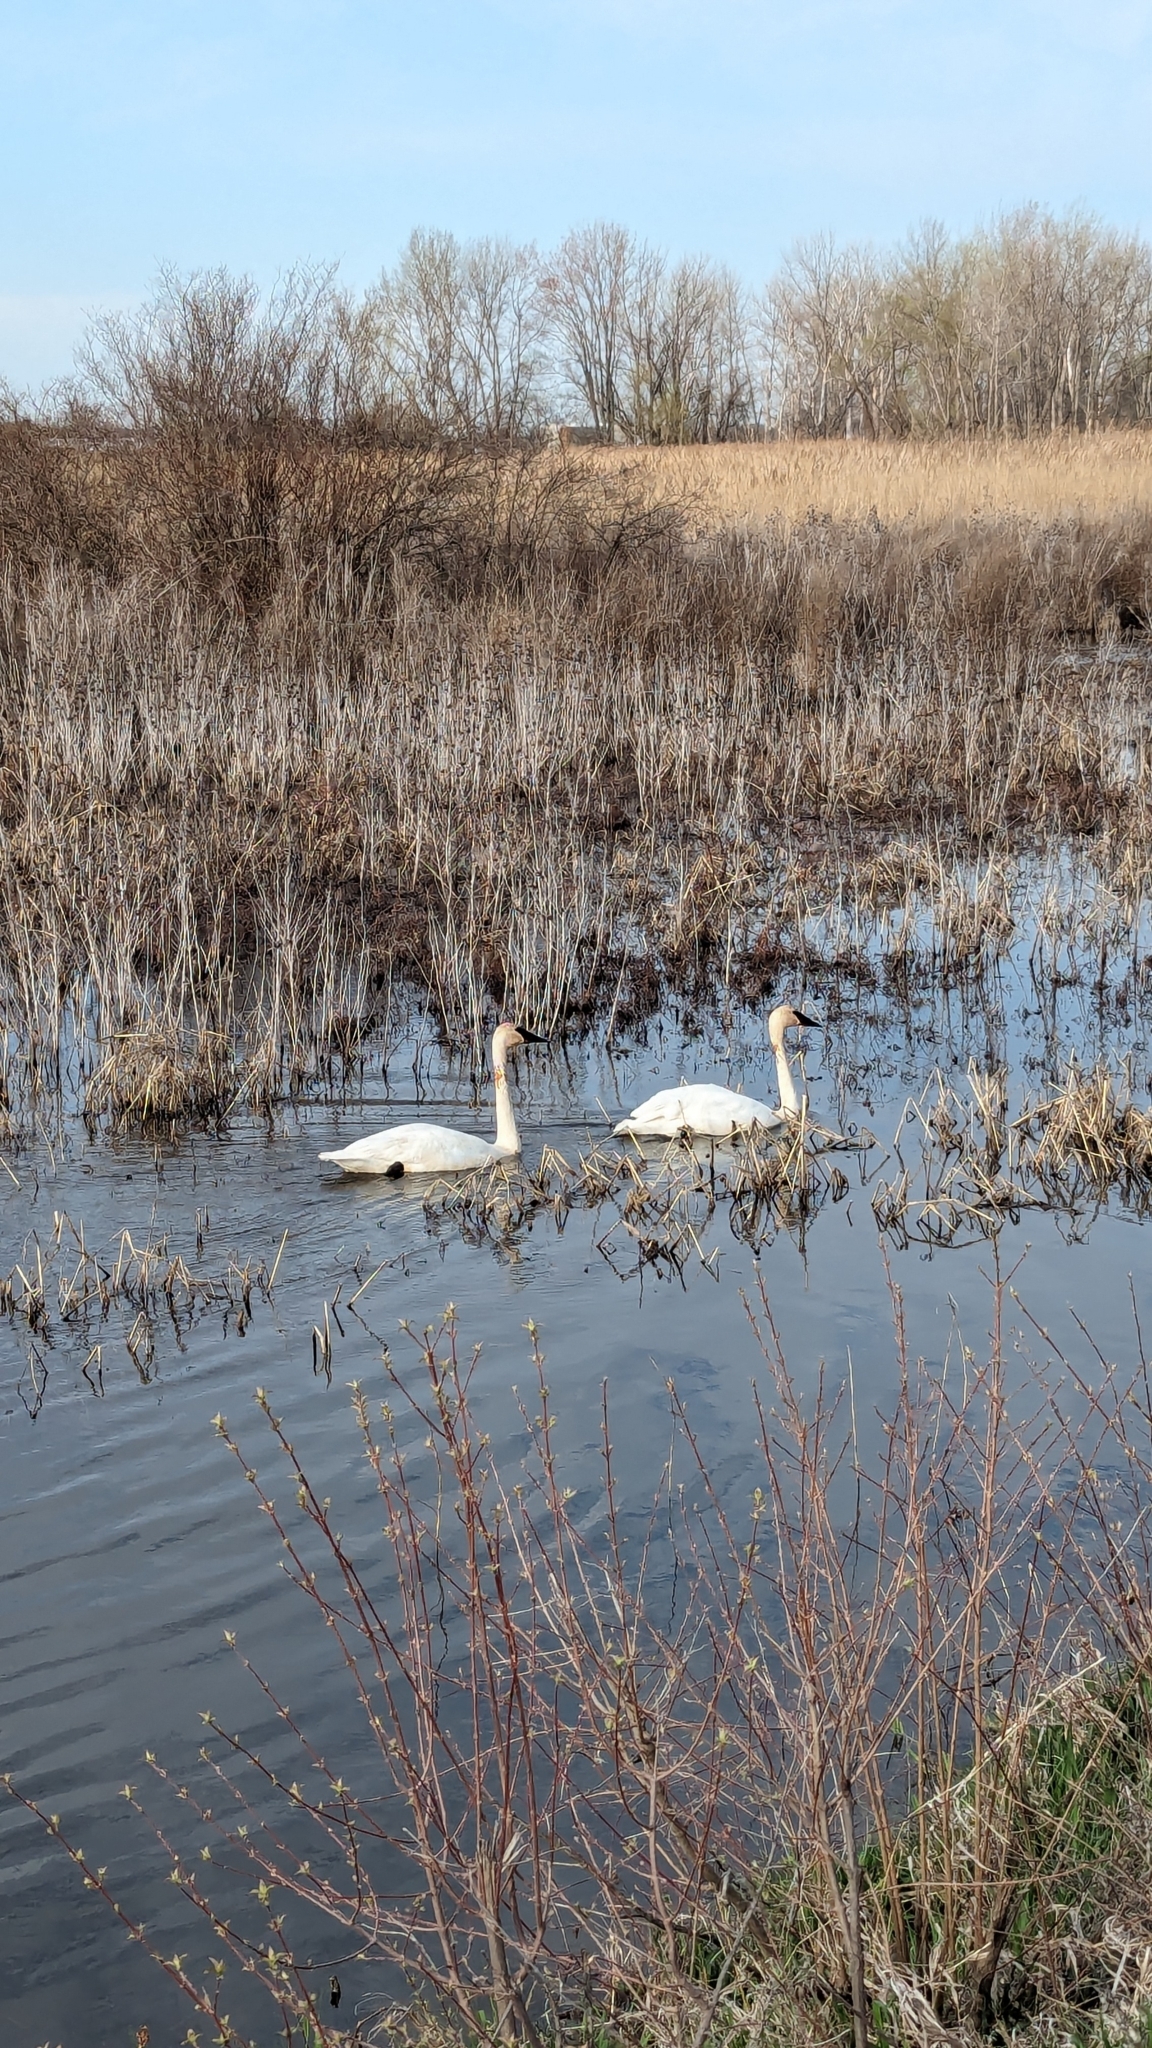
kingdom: Animalia
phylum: Chordata
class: Aves
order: Anseriformes
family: Anatidae
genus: Cygnus
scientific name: Cygnus buccinator
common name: Trumpeter swan
